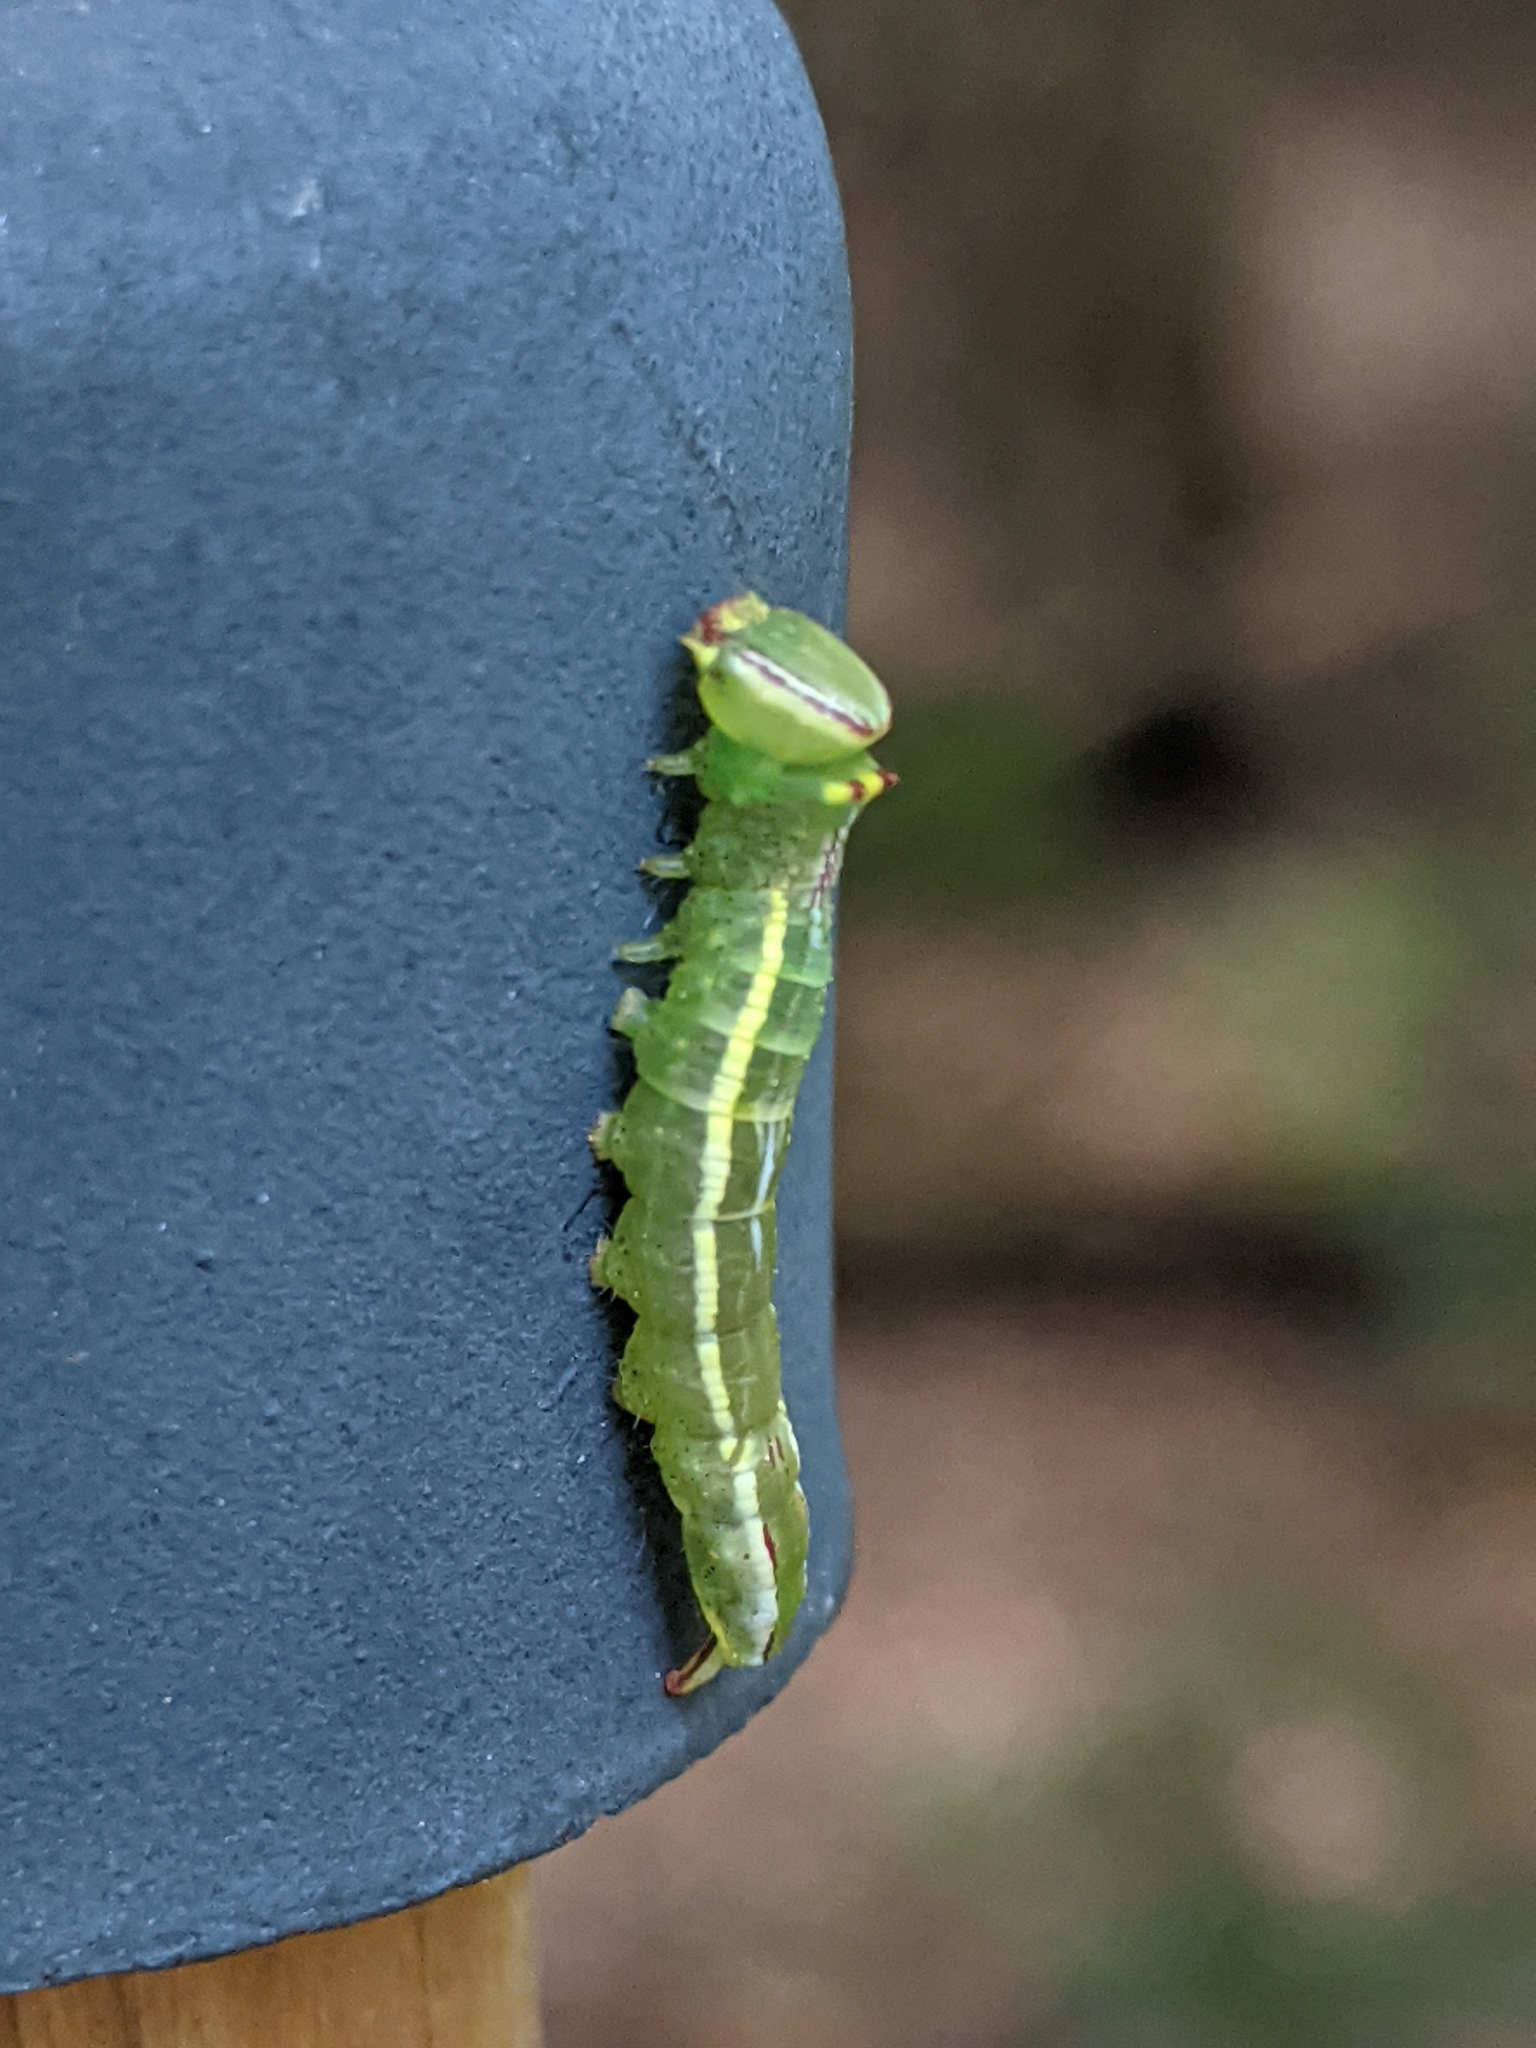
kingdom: Animalia
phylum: Arthropoda
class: Insecta
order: Lepidoptera
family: Notodontidae
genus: Disphragis
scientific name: Disphragis Cecrita guttivitta
